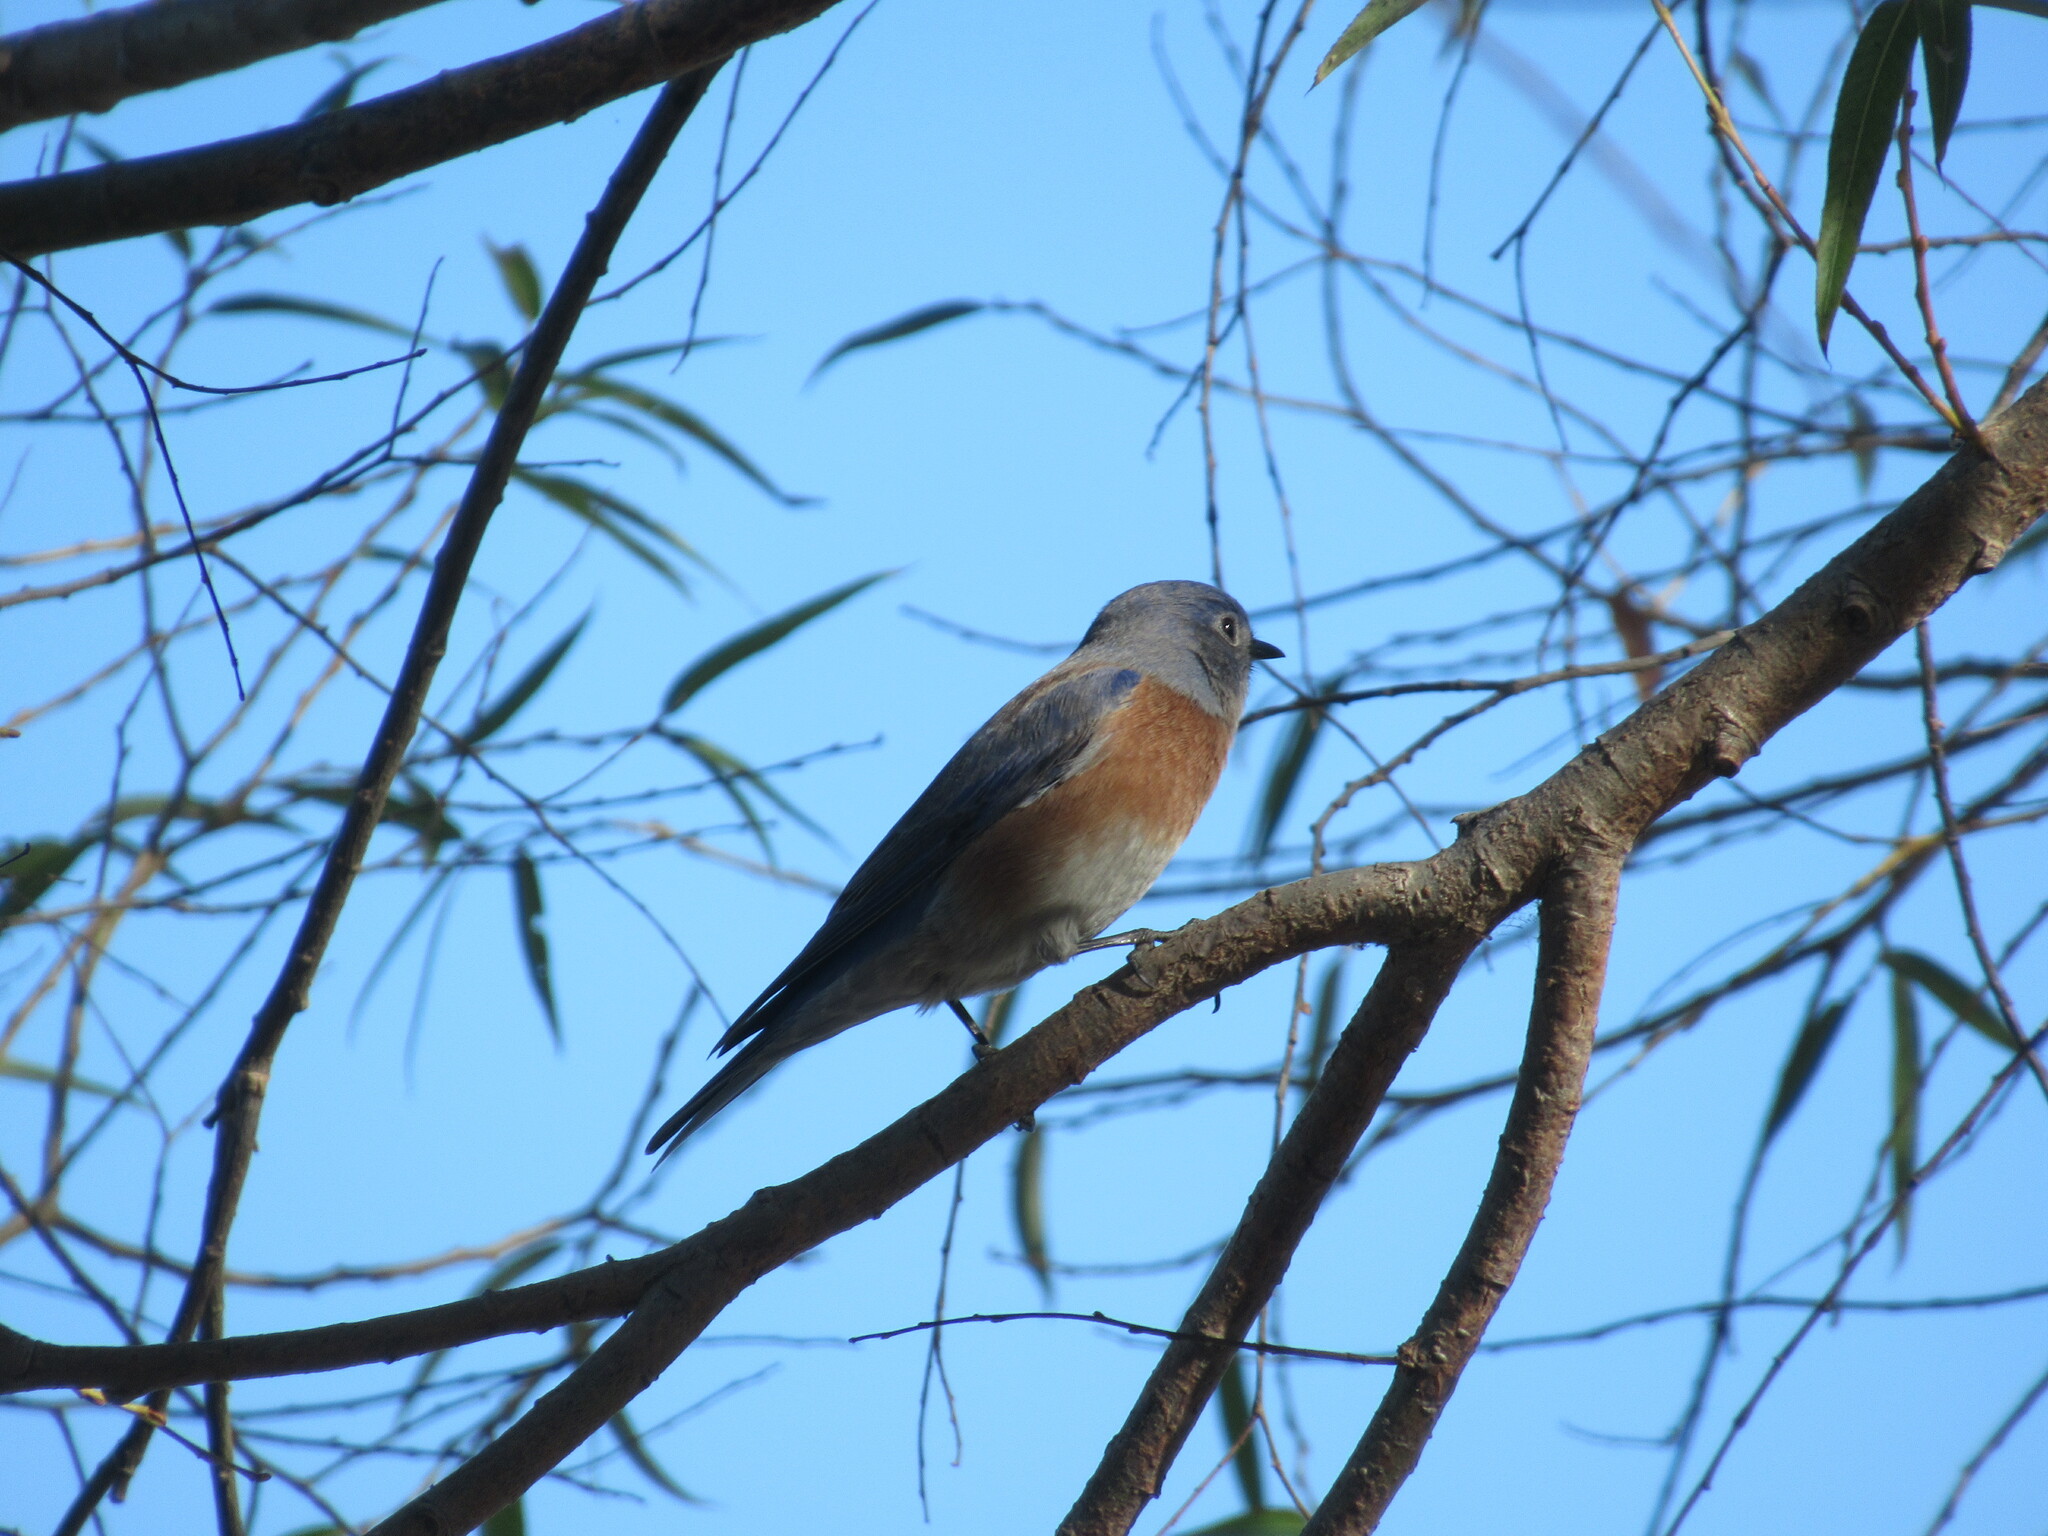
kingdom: Animalia
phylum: Chordata
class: Aves
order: Passeriformes
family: Turdidae
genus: Sialia
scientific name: Sialia mexicana
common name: Western bluebird
